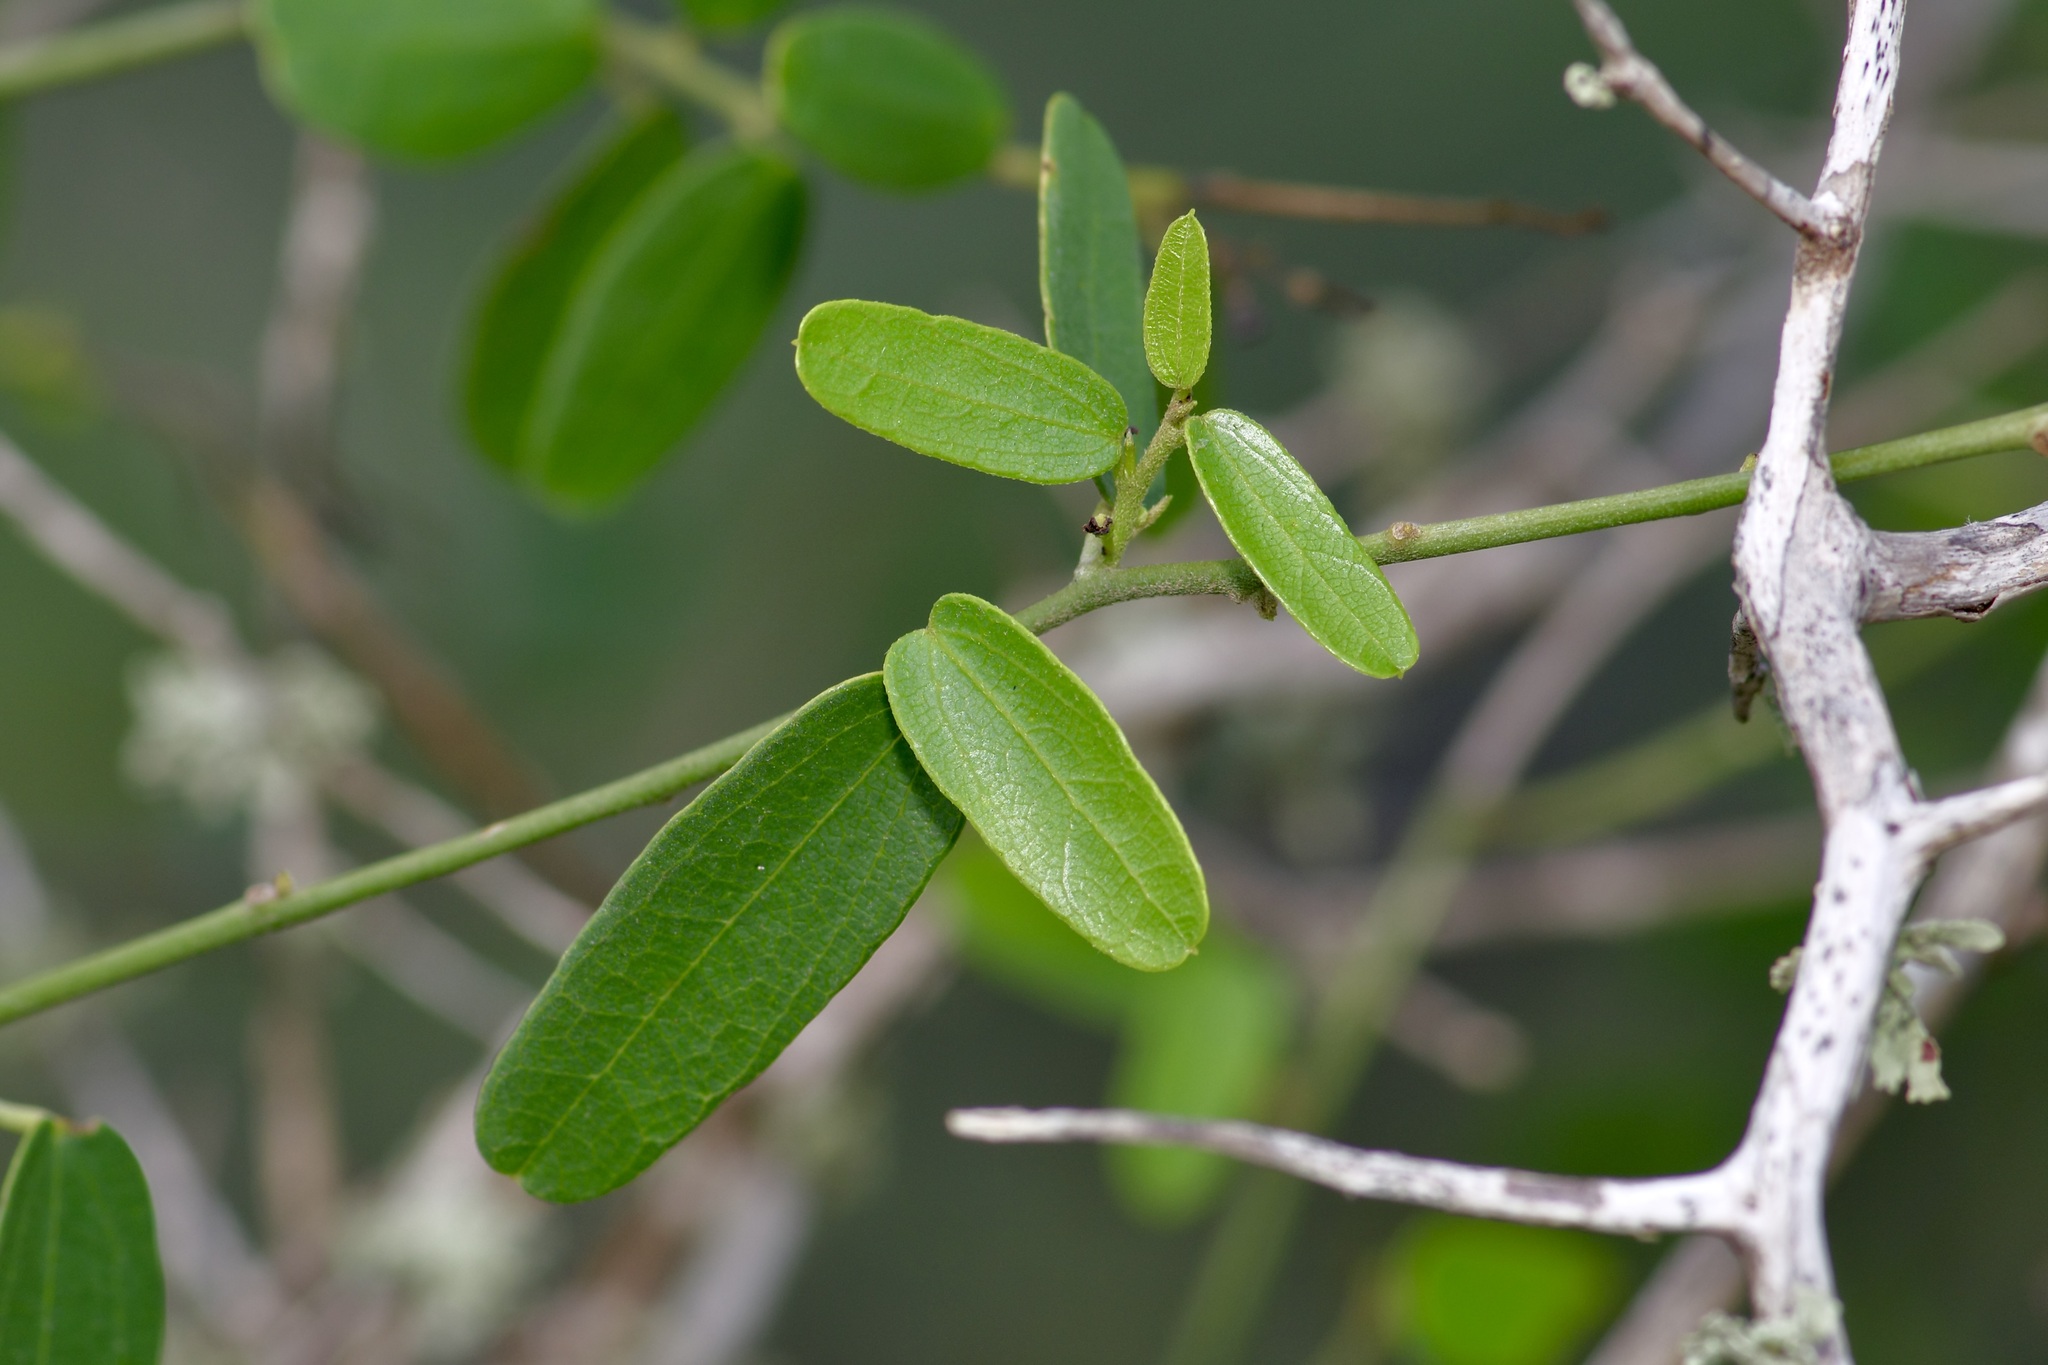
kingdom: Plantae
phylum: Tracheophyta
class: Magnoliopsida
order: Ranunculales
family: Menispermaceae
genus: Cocculus
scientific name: Cocculus diversifolius
